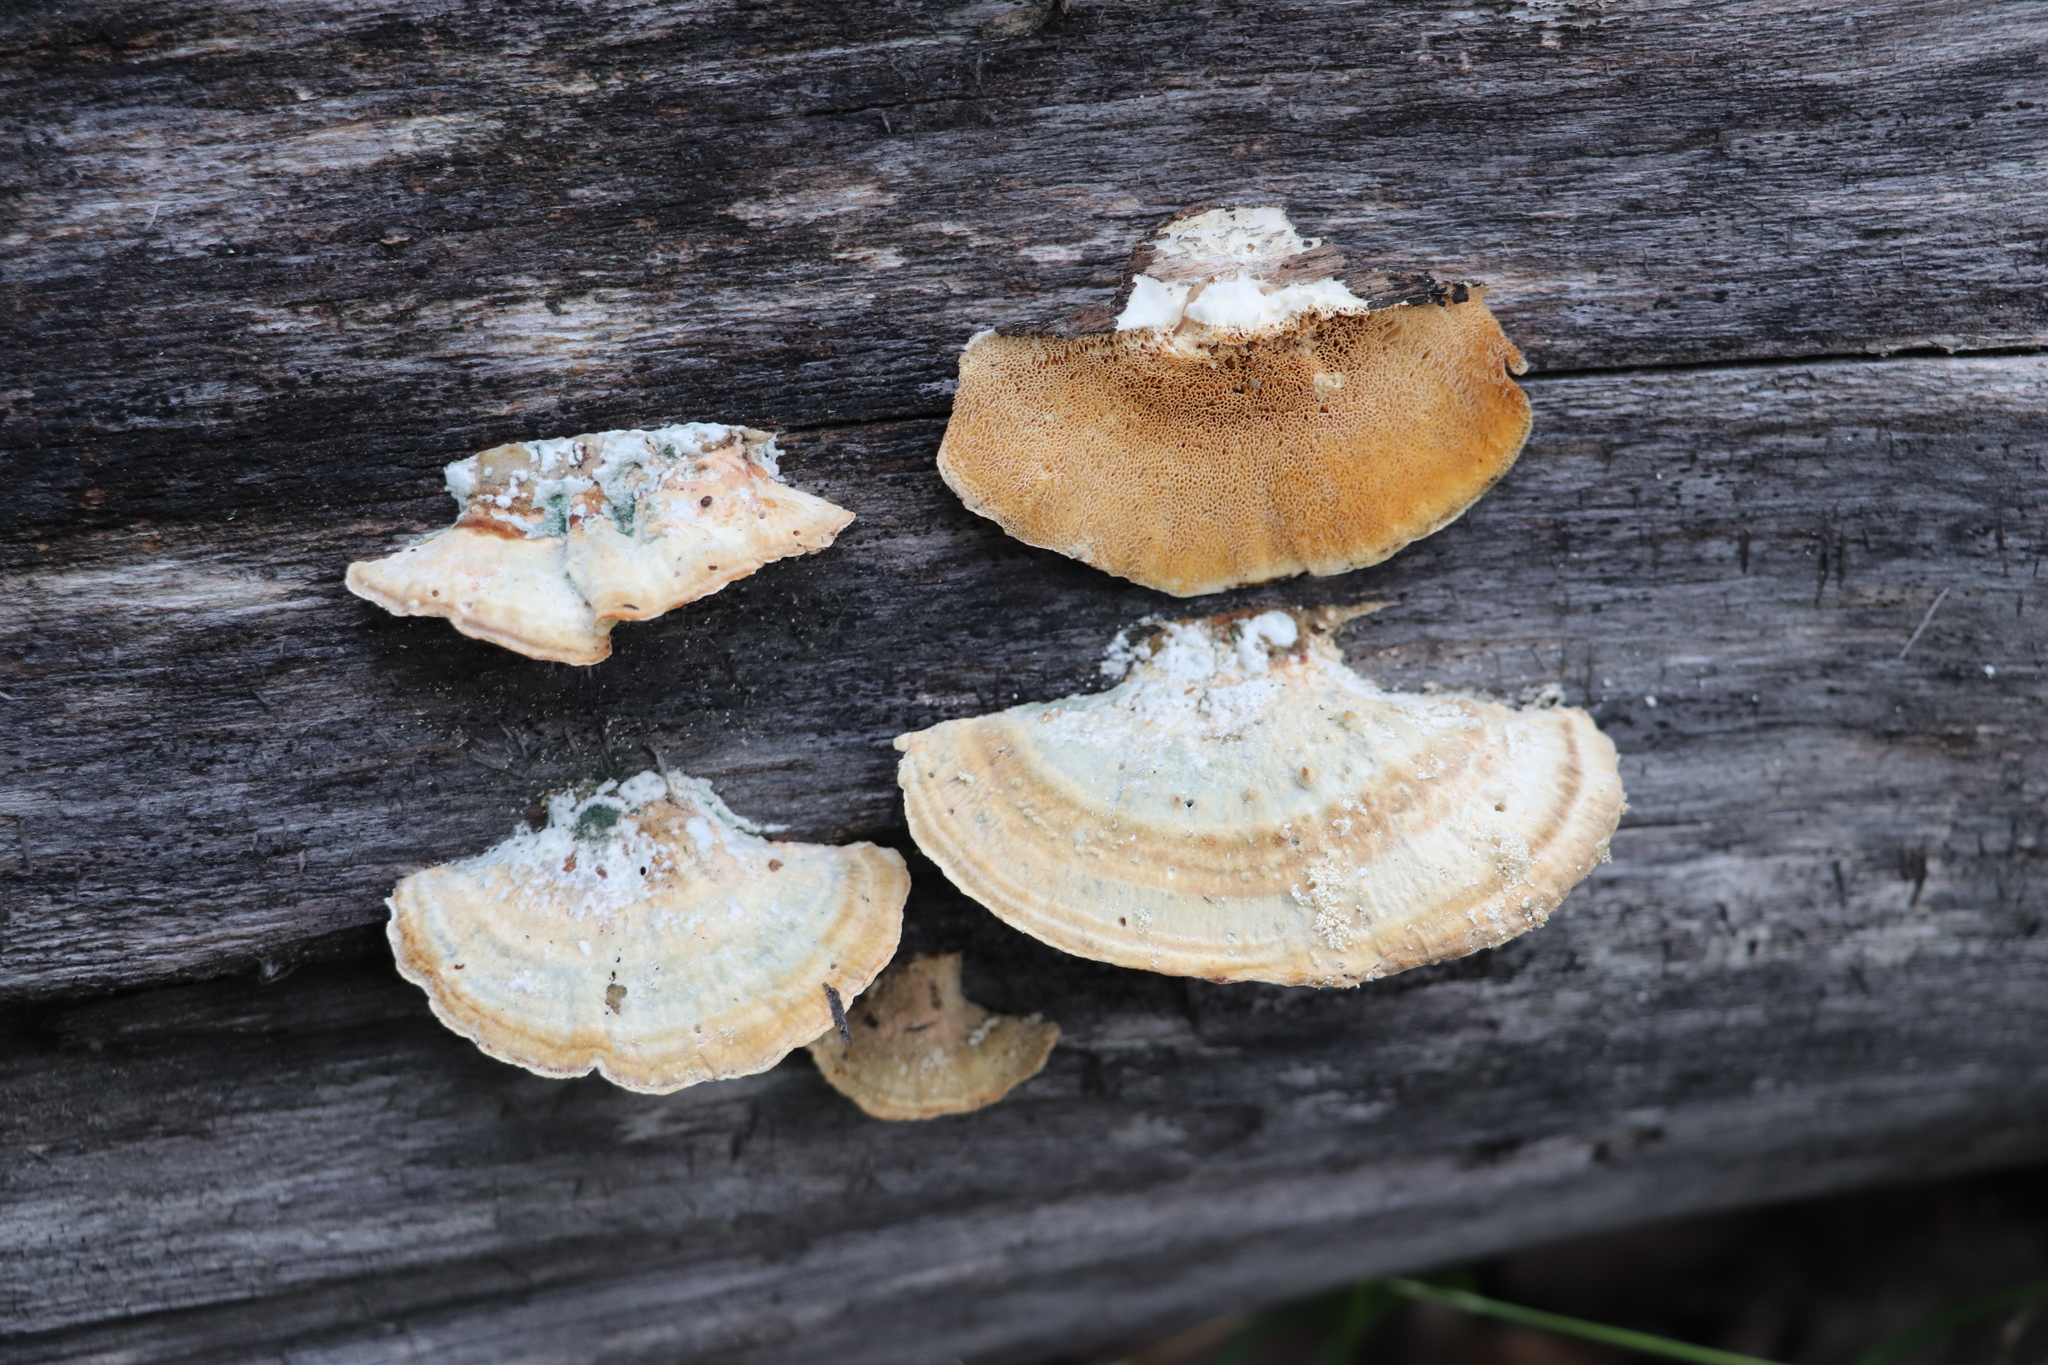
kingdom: Fungi
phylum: Basidiomycota
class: Agaricomycetes
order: Polyporales
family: Polyporaceae
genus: Trametes
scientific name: Trametes ochracea
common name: Ochre bracket
